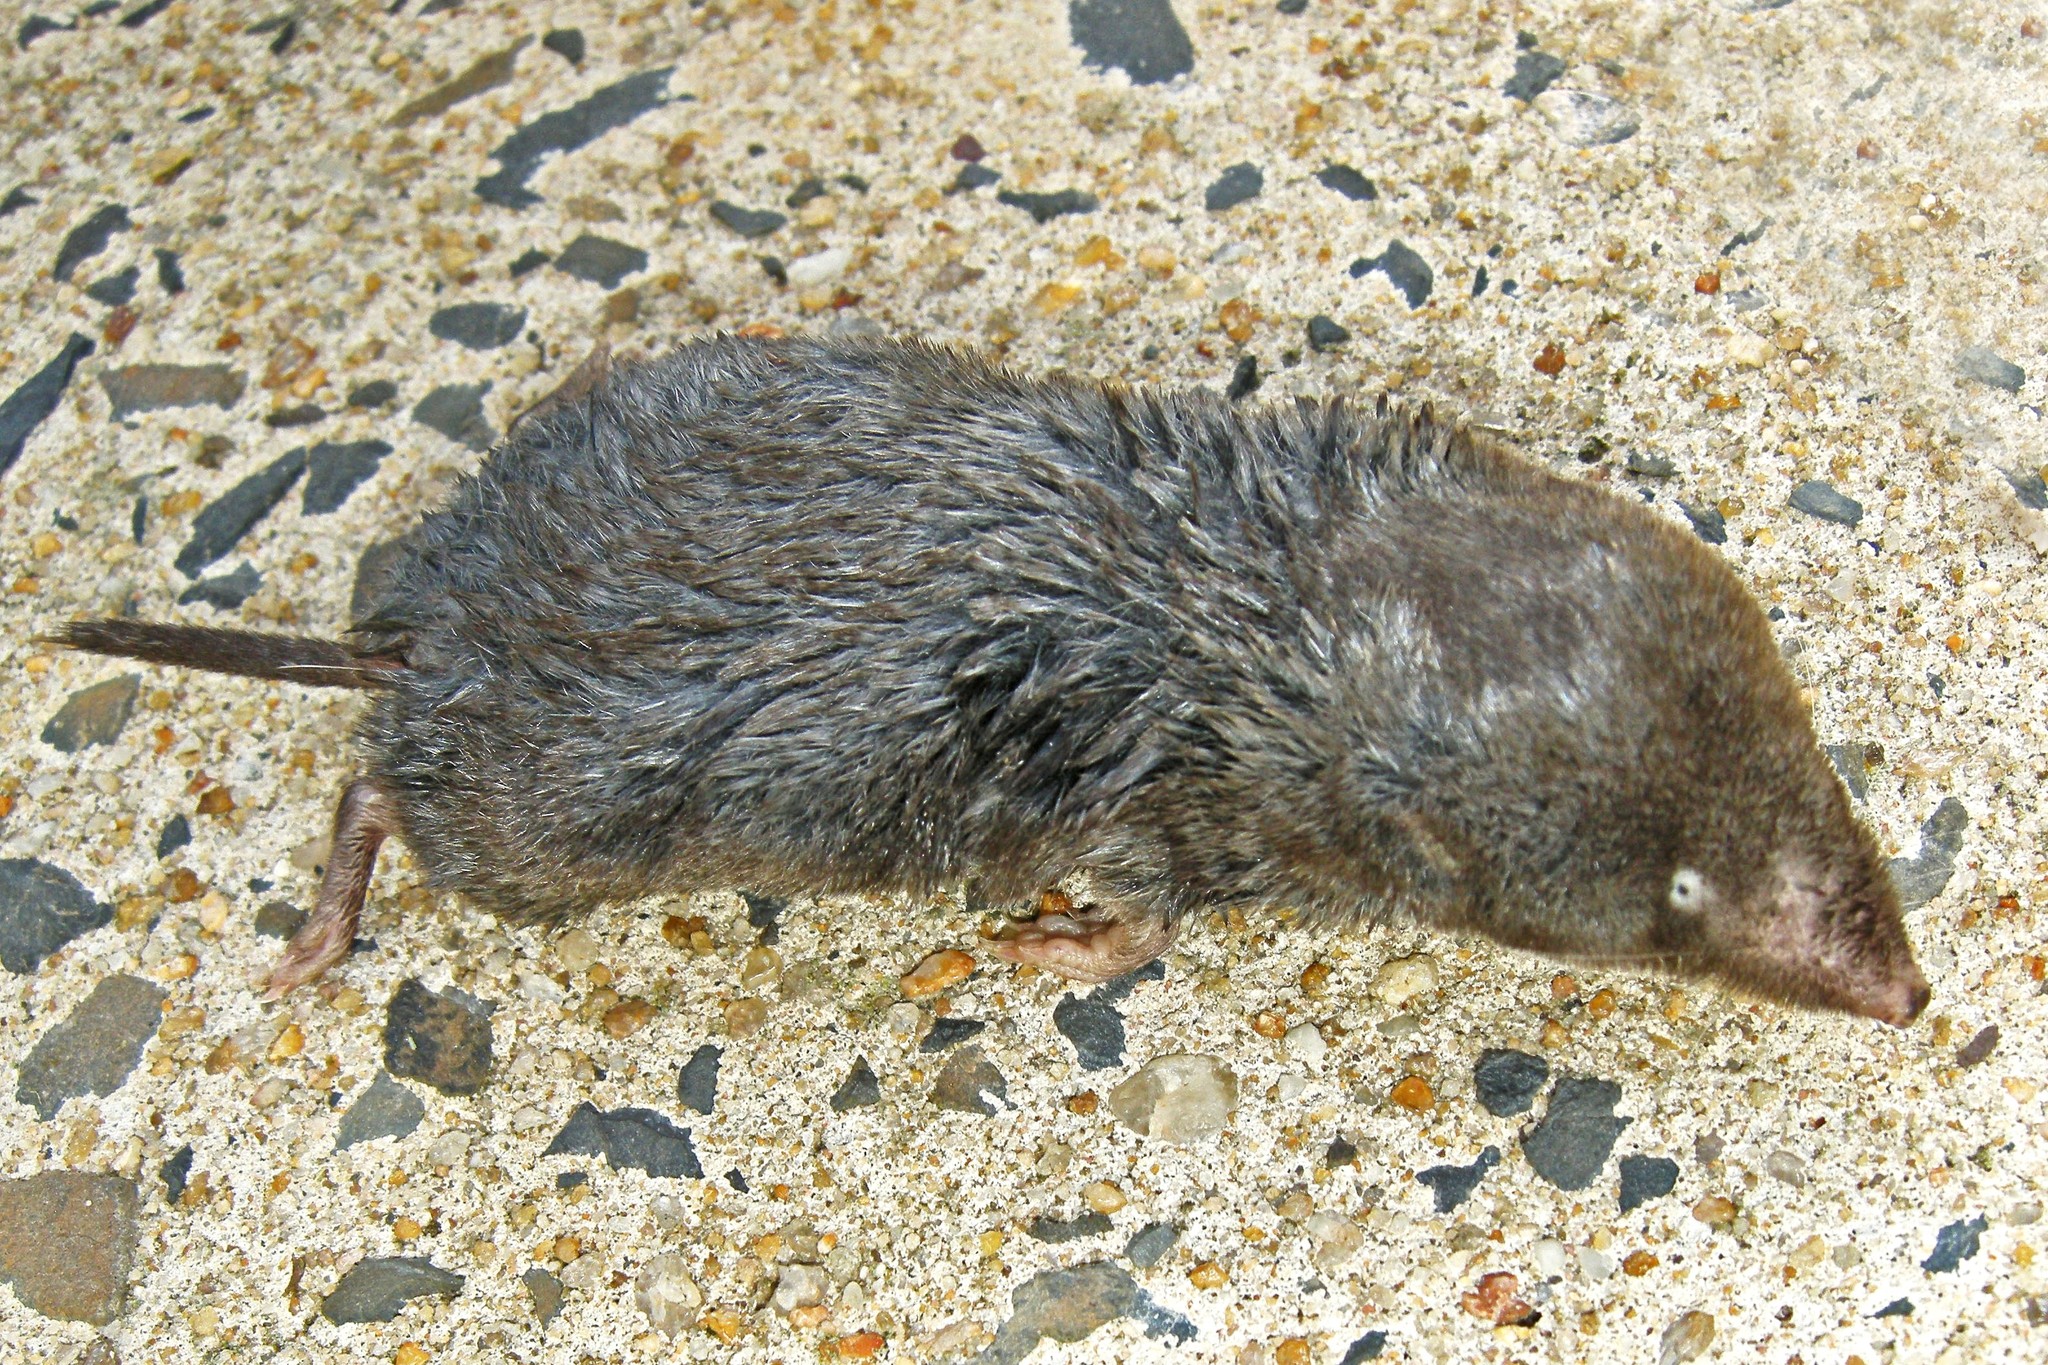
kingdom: Animalia
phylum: Chordata
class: Mammalia
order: Soricomorpha
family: Soricidae
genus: Blarina
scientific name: Blarina brevicauda
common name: Northern short-tailed shrew
